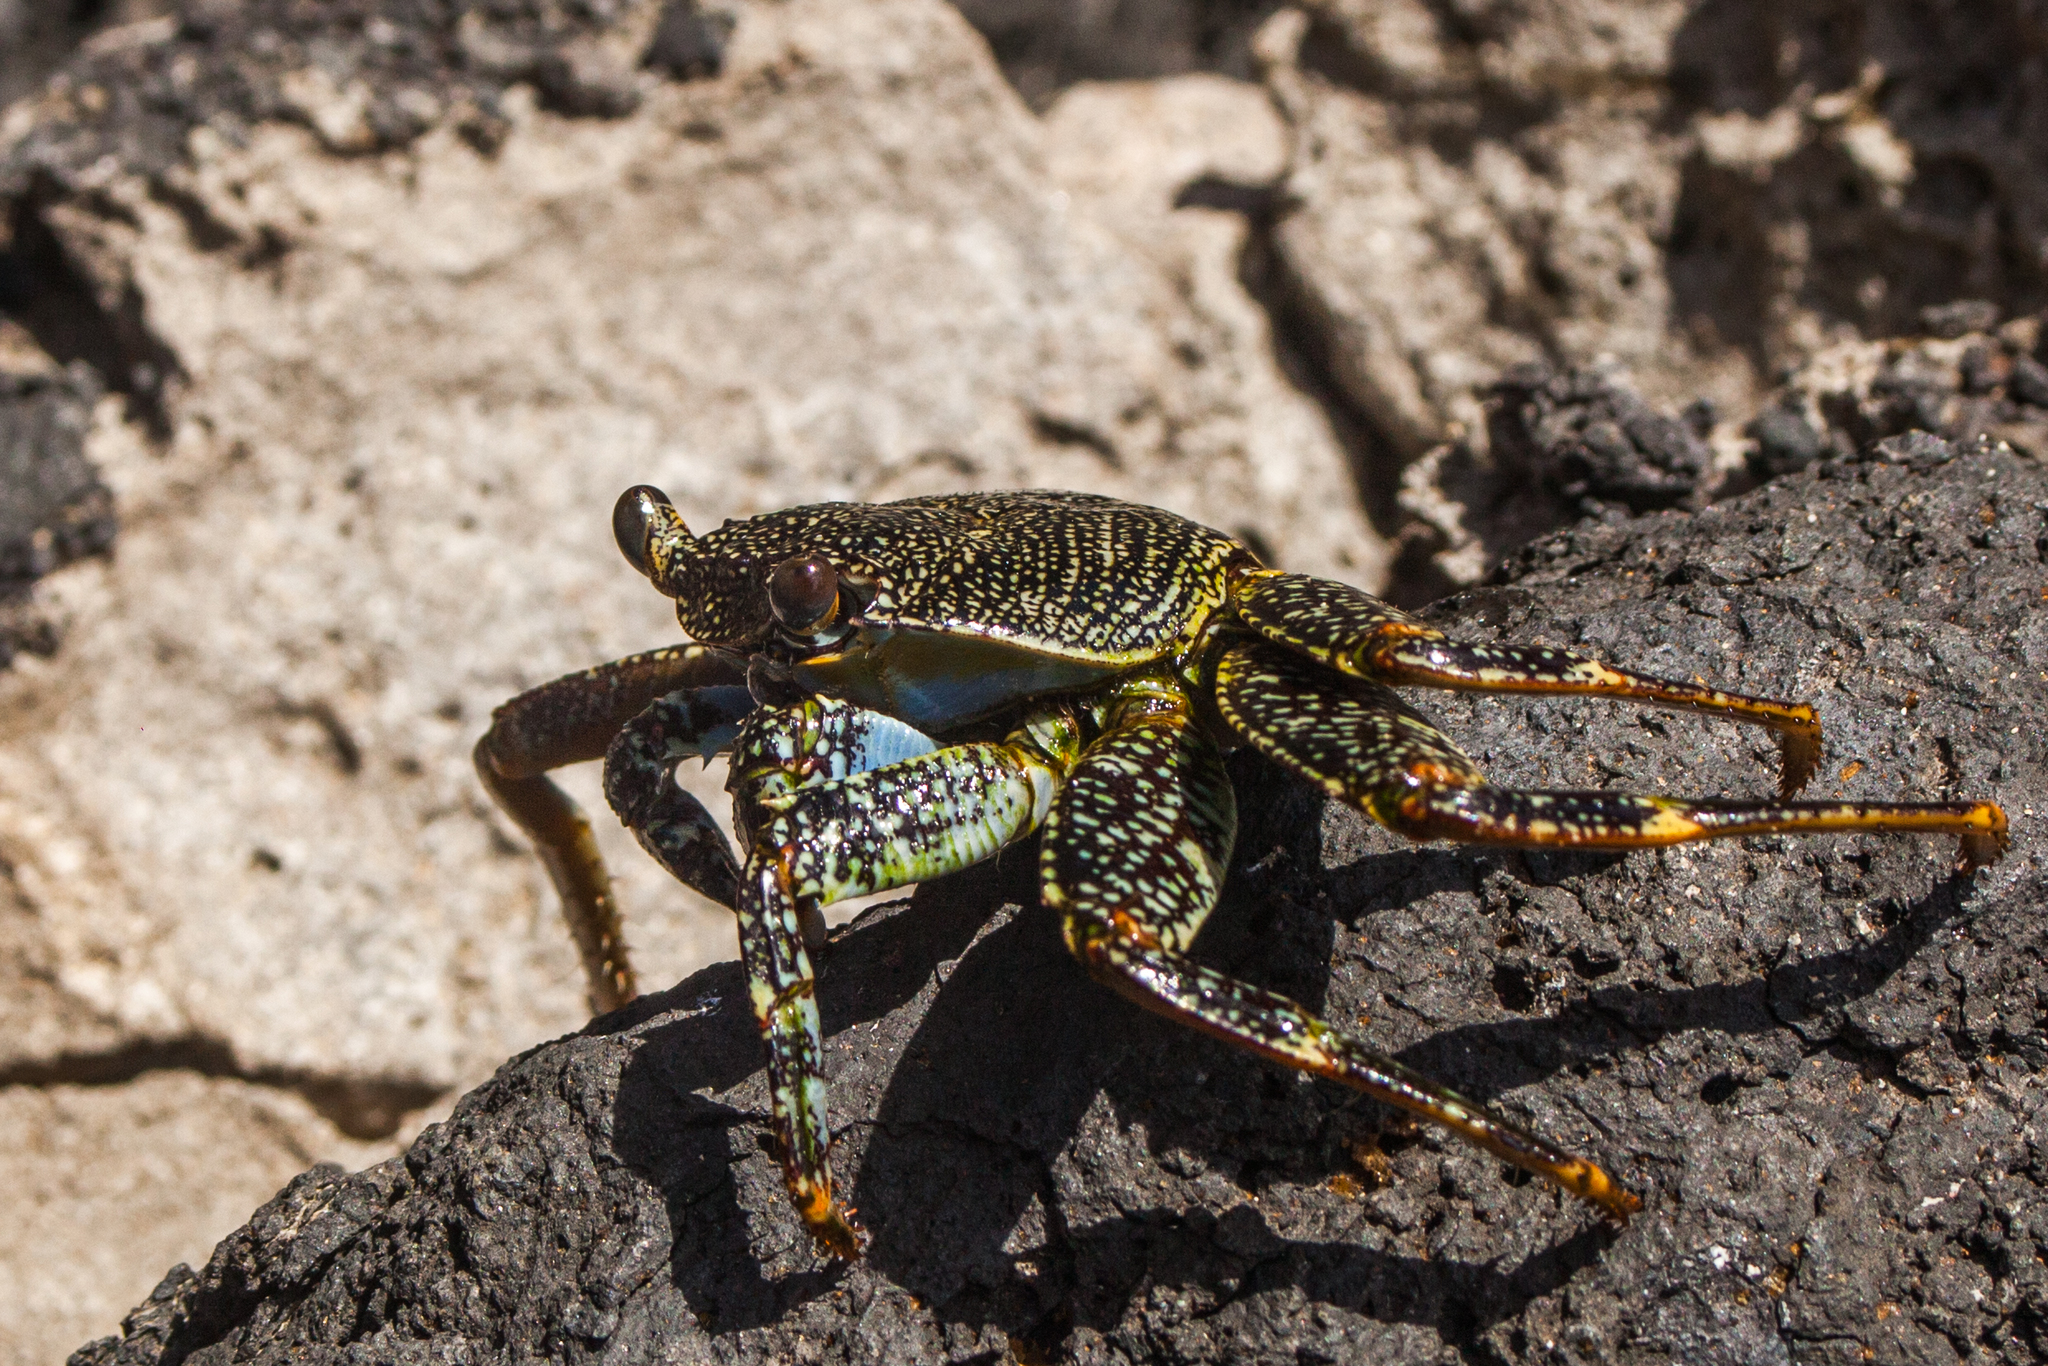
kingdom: Animalia
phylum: Arthropoda
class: Malacostraca
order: Decapoda
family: Grapsidae
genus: Grapsus
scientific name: Grapsus grapsus
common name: Sally lightfoot
